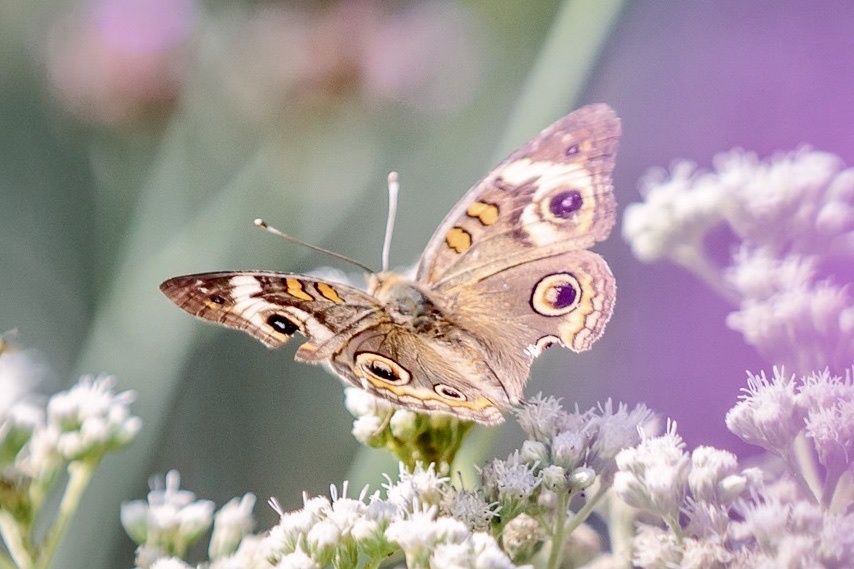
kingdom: Animalia
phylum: Arthropoda
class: Insecta
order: Lepidoptera
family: Nymphalidae
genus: Junonia
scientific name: Junonia coenia
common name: Common buckeye
